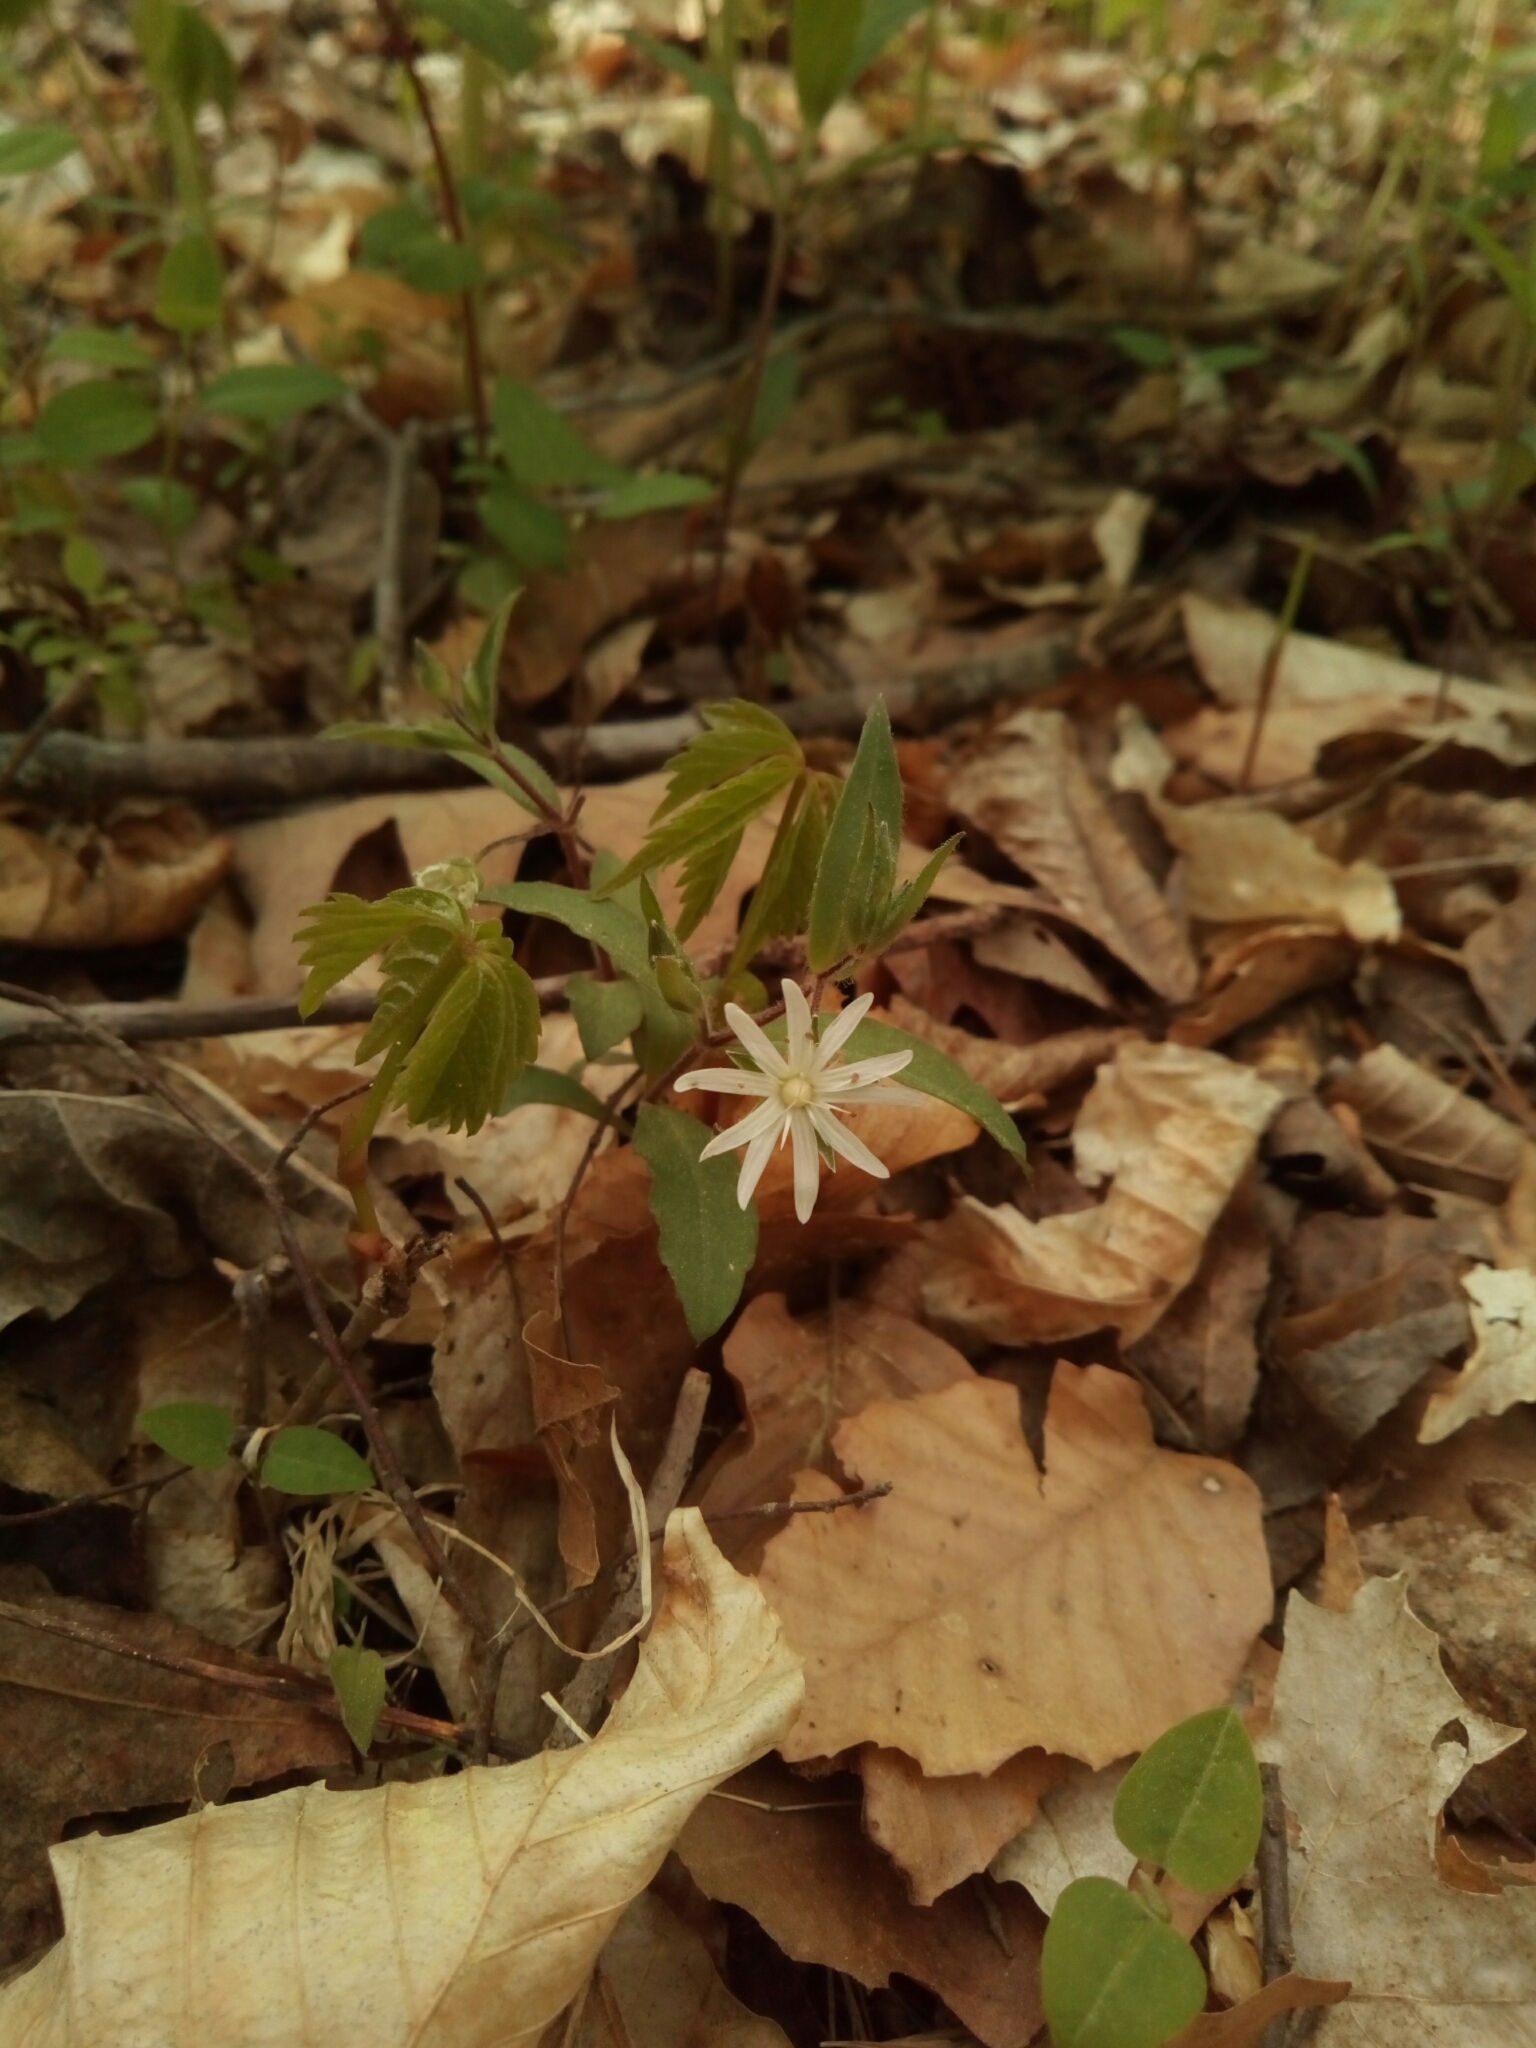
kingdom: Plantae
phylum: Tracheophyta
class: Magnoliopsida
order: Caryophyllales
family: Caryophyllaceae
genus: Stellaria
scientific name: Stellaria pubera
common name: Star chickweed
